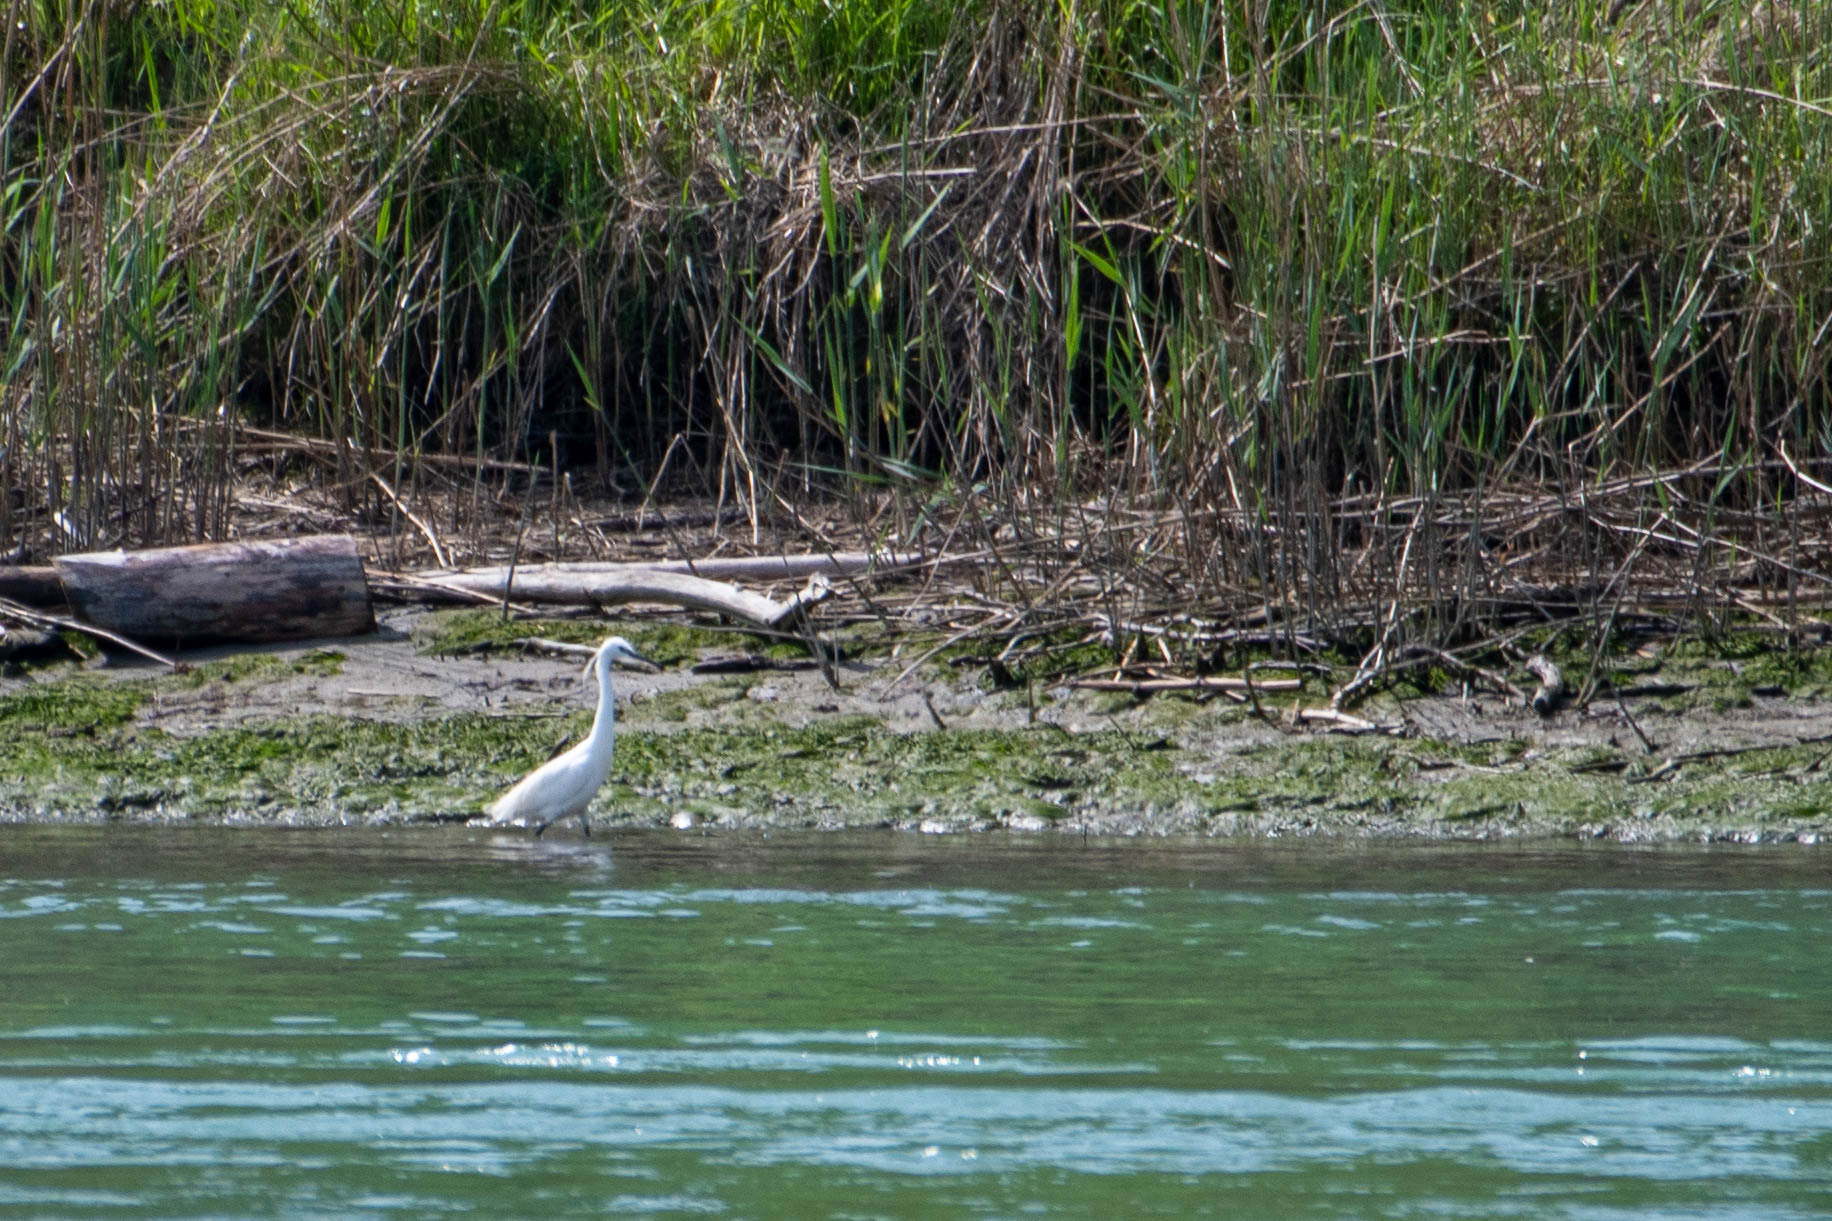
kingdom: Animalia
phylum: Chordata
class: Aves
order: Pelecaniformes
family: Ardeidae
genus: Egretta
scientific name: Egretta garzetta
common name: Little egret
